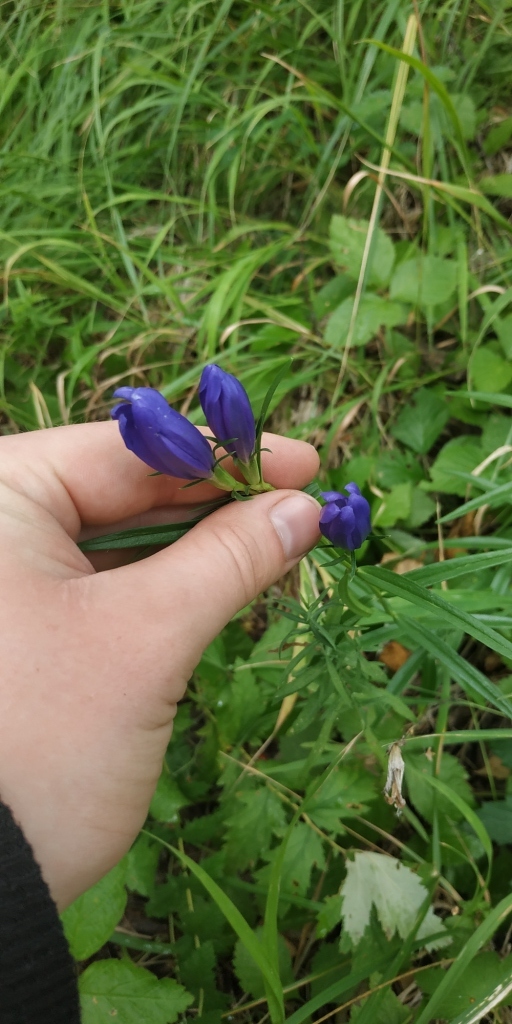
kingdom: Plantae
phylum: Tracheophyta
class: Magnoliopsida
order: Gentianales
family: Gentianaceae
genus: Gentiana
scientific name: Gentiana pneumonanthe
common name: Marsh gentian
